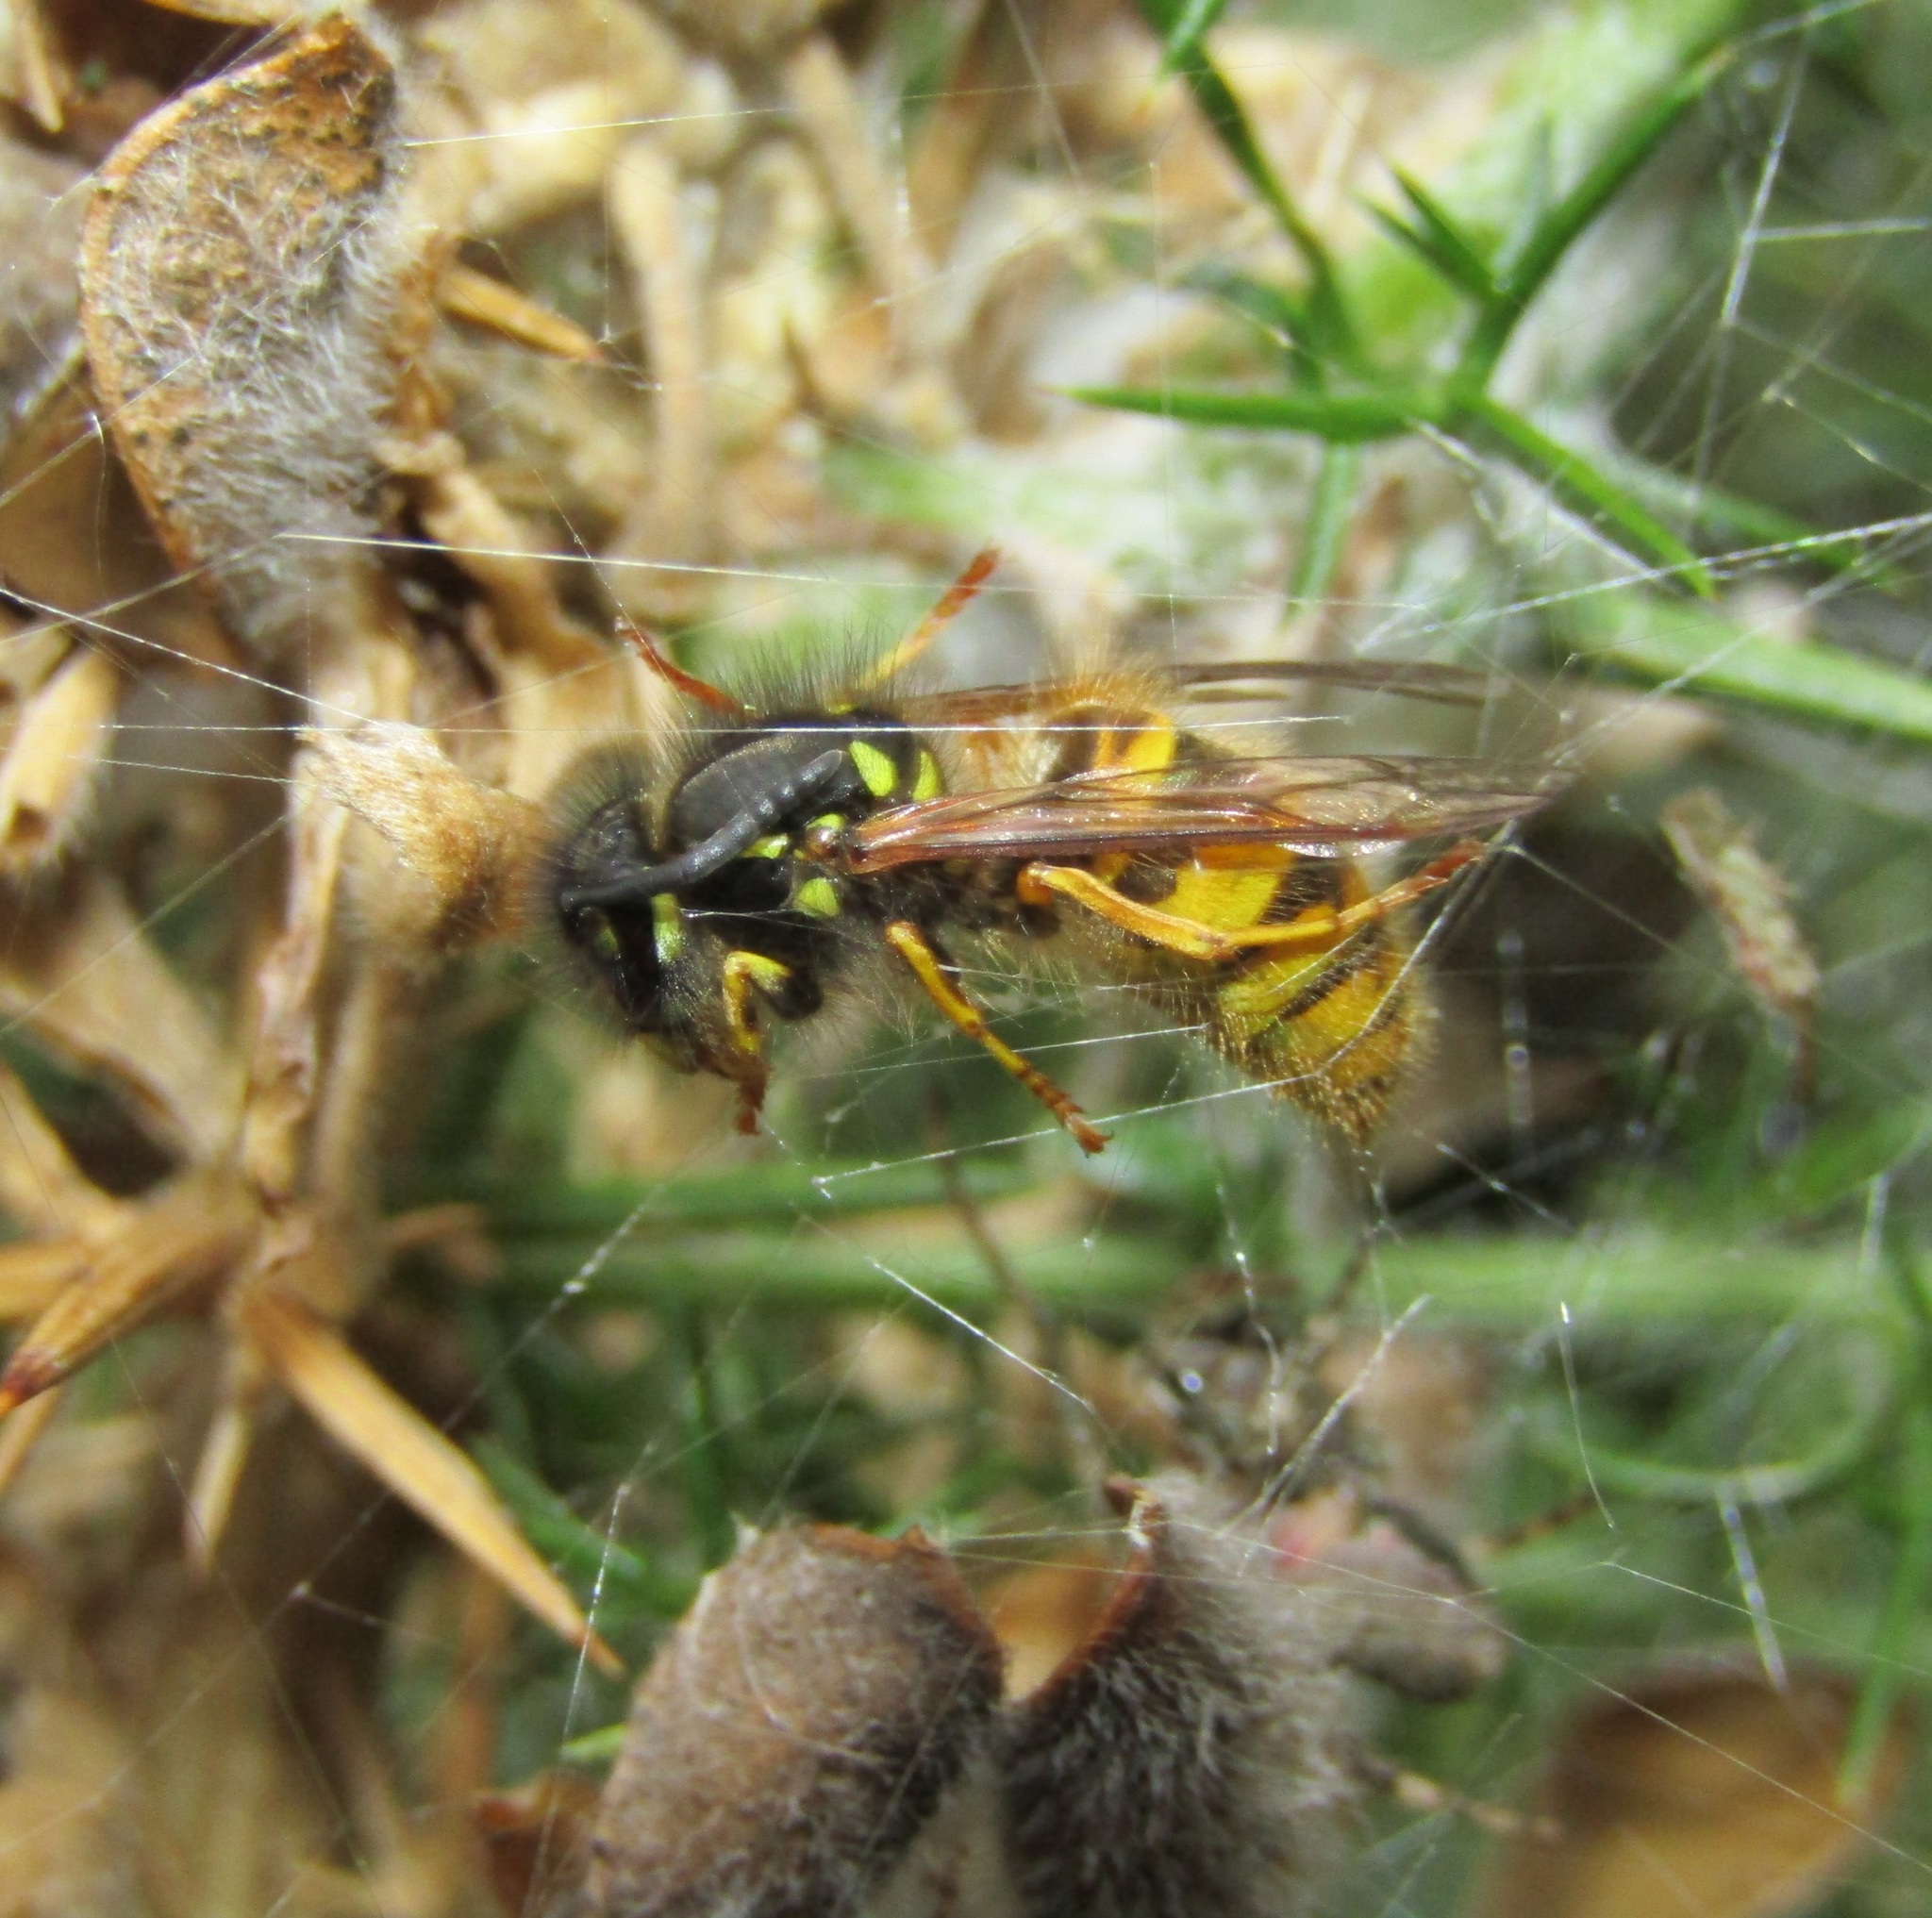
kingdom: Animalia
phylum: Arthropoda
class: Insecta
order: Hymenoptera
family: Vespidae
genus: Vespula
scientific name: Vespula vulgaris
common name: Common wasp
